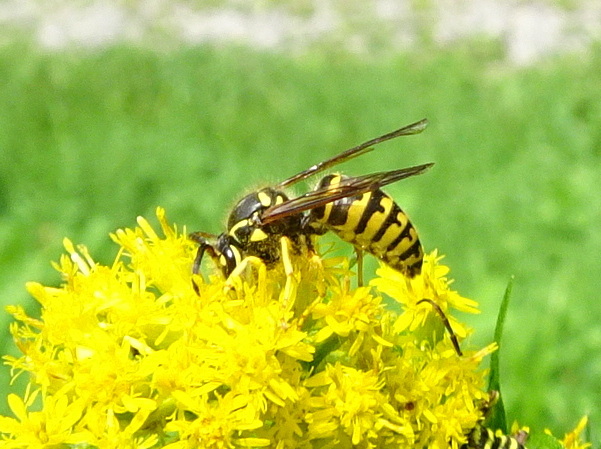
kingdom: Animalia
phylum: Arthropoda
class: Insecta
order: Hymenoptera
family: Vespidae
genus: Dolichovespula
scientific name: Dolichovespula arenaria
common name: Aerial yellowjacket
